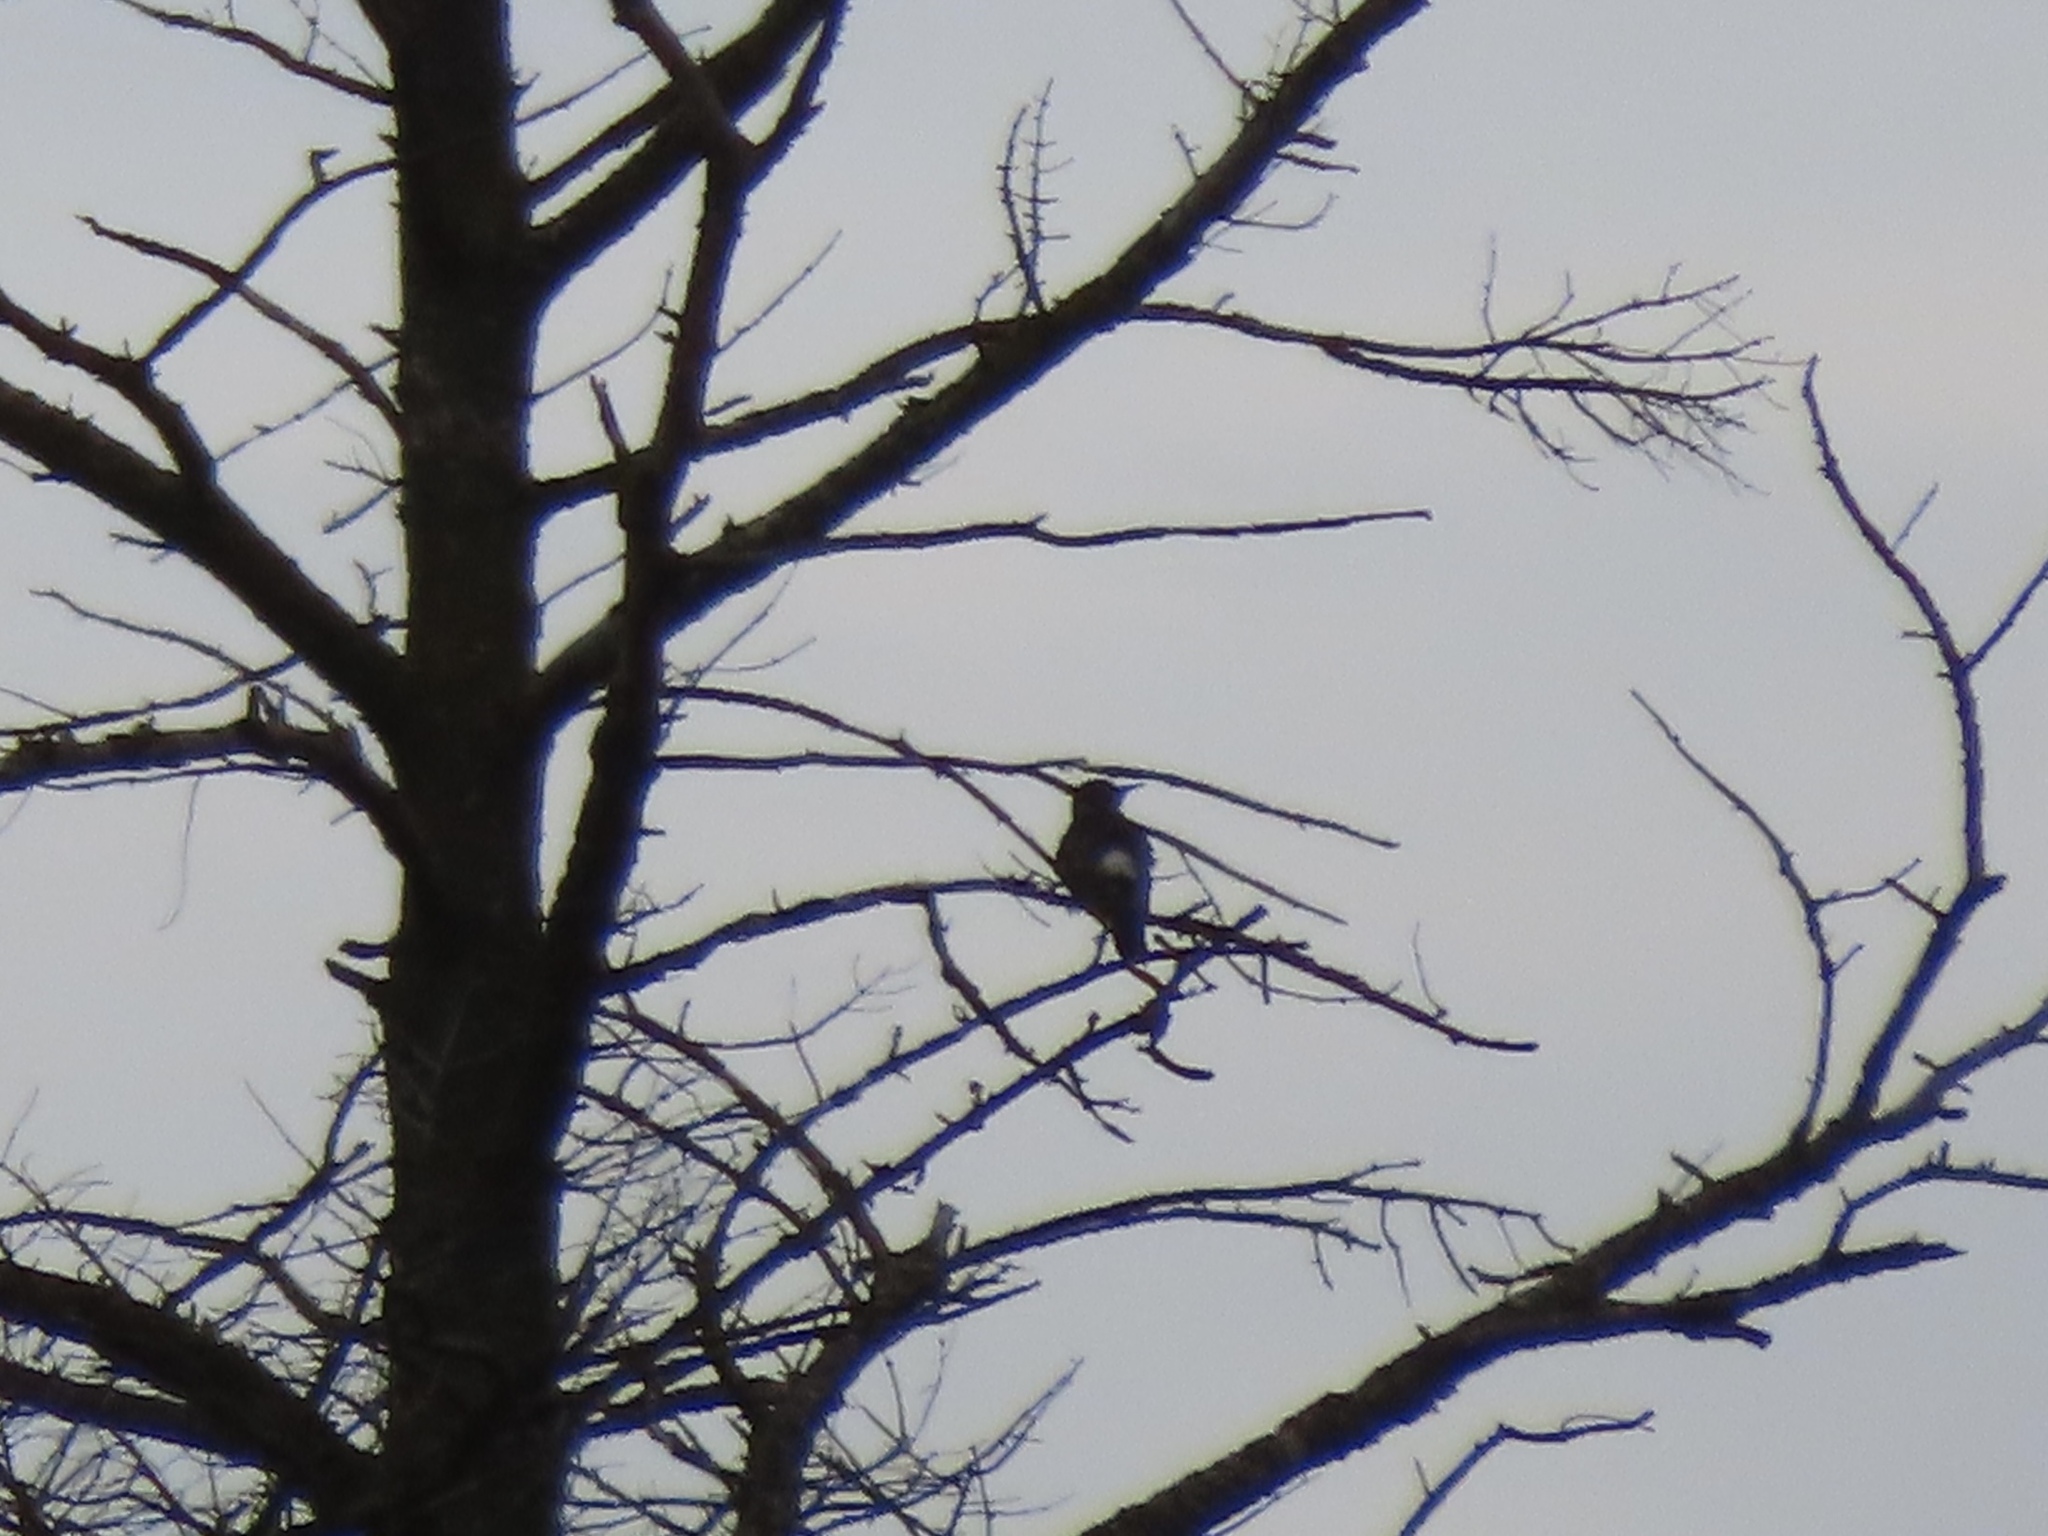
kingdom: Animalia
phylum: Chordata
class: Aves
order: Piciformes
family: Picidae
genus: Colaptes
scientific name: Colaptes auratus
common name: Northern flicker
